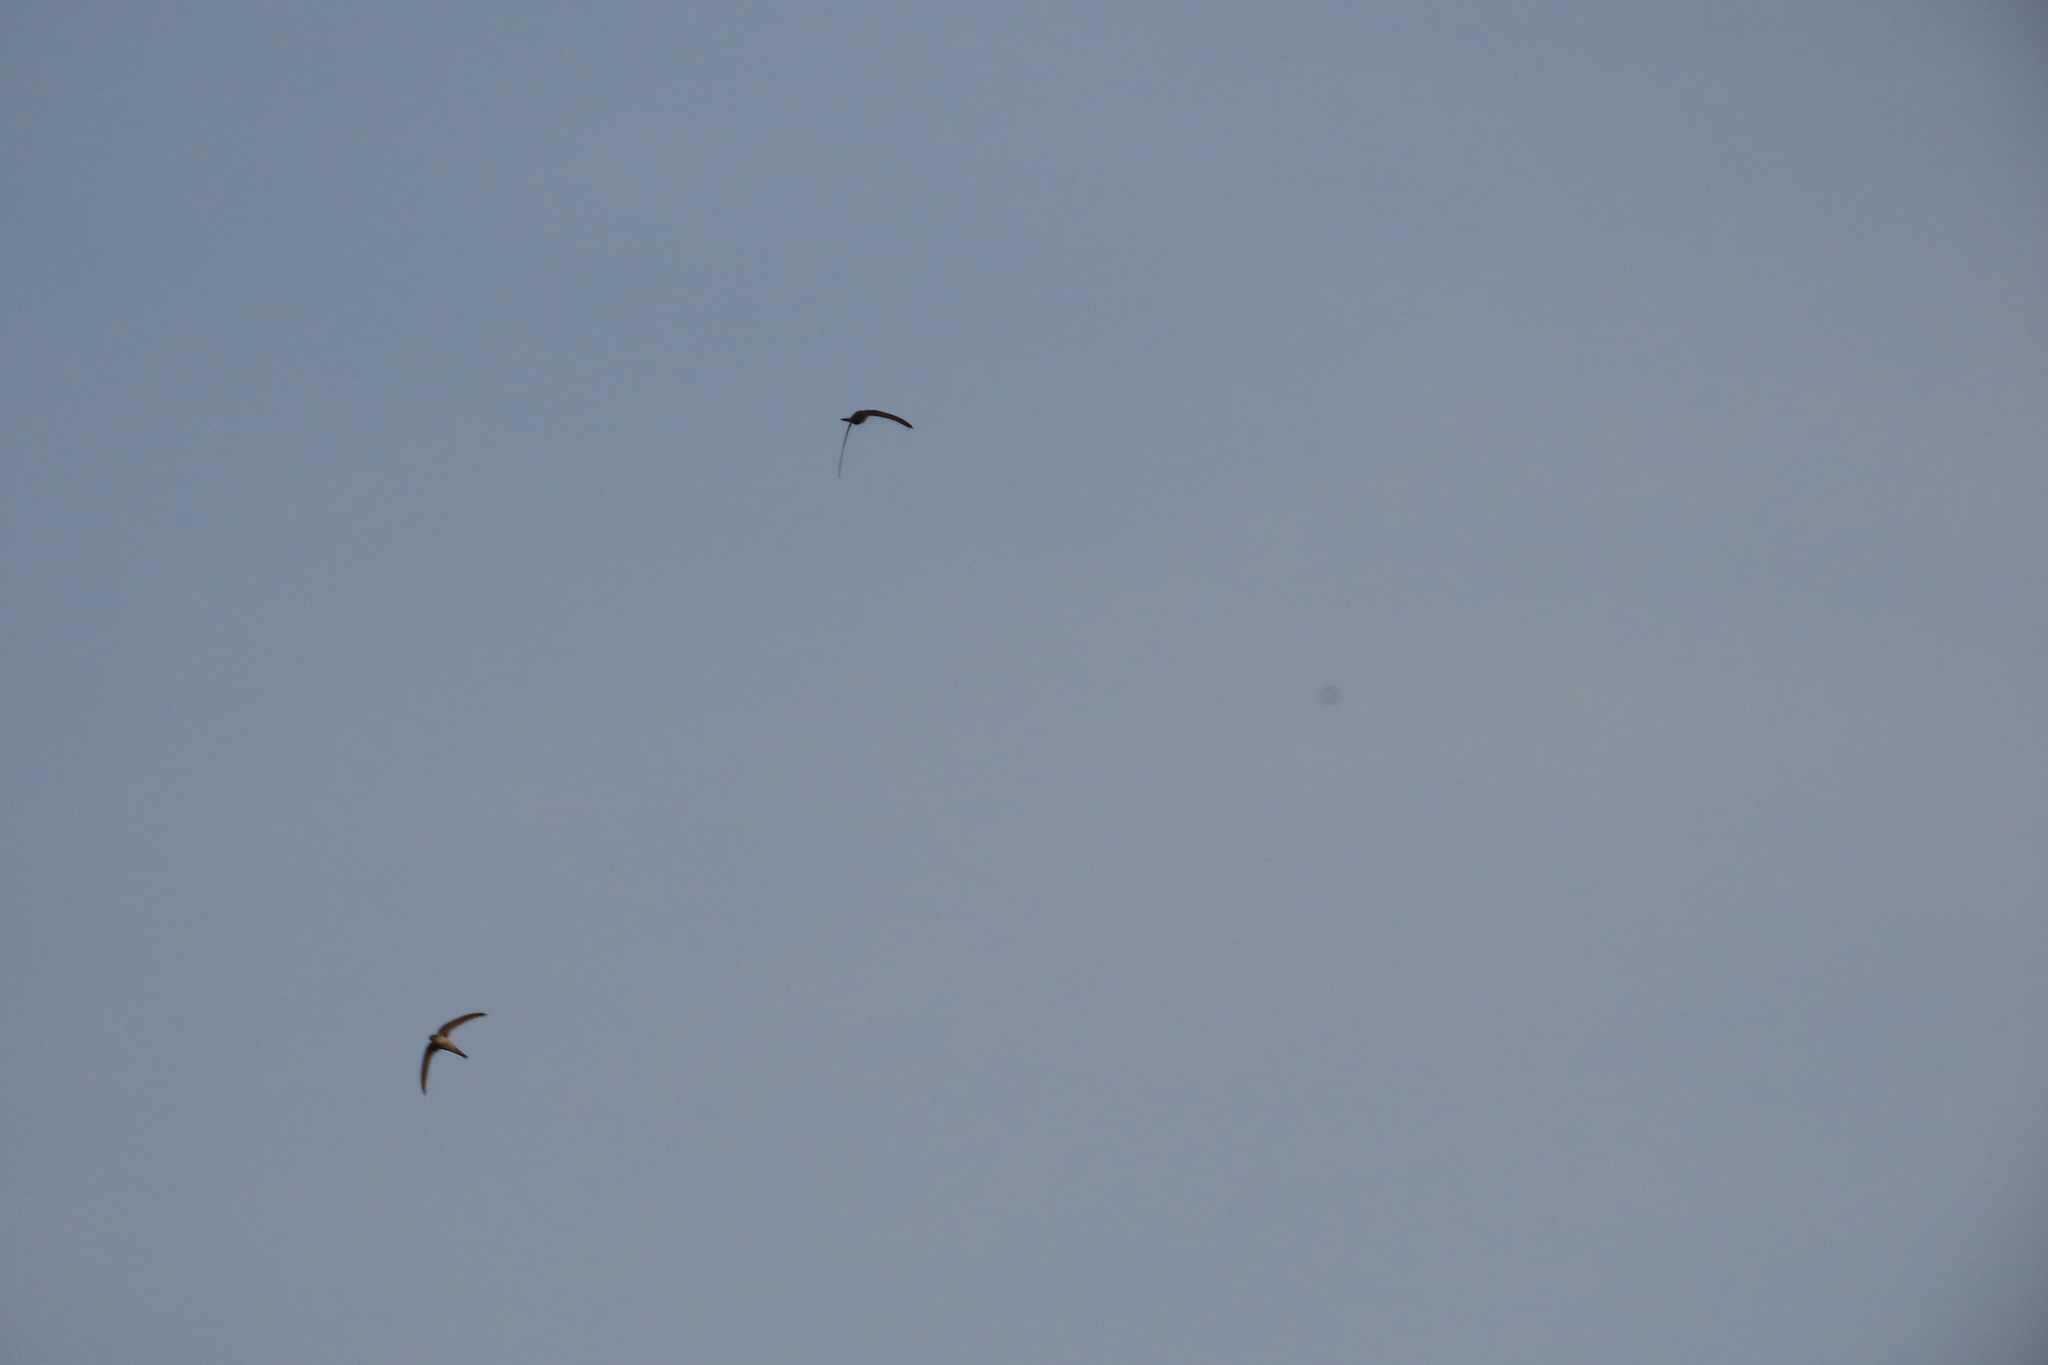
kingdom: Animalia
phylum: Chordata
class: Aves
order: Apodiformes
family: Apodidae
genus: Cypsiurus
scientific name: Cypsiurus balasiensis
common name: Asian palm swift
